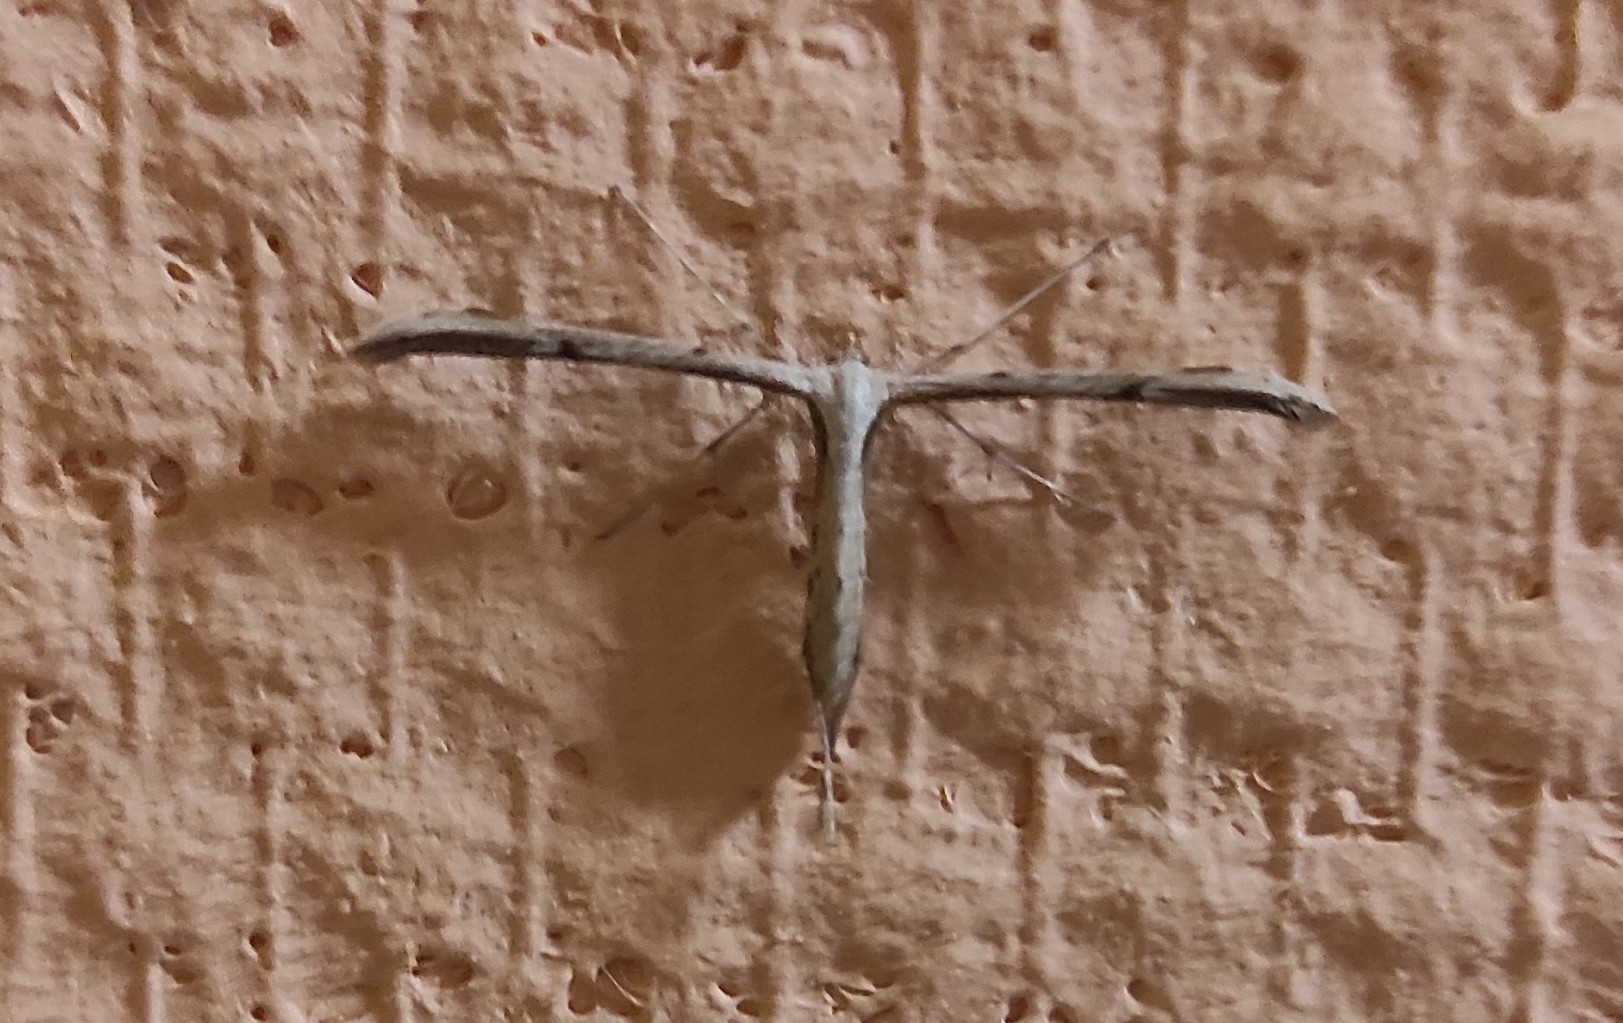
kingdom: Animalia
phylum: Arthropoda
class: Insecta
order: Lepidoptera
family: Pterophoridae
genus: Emmelina
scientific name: Emmelina monodactyla
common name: Common plume
